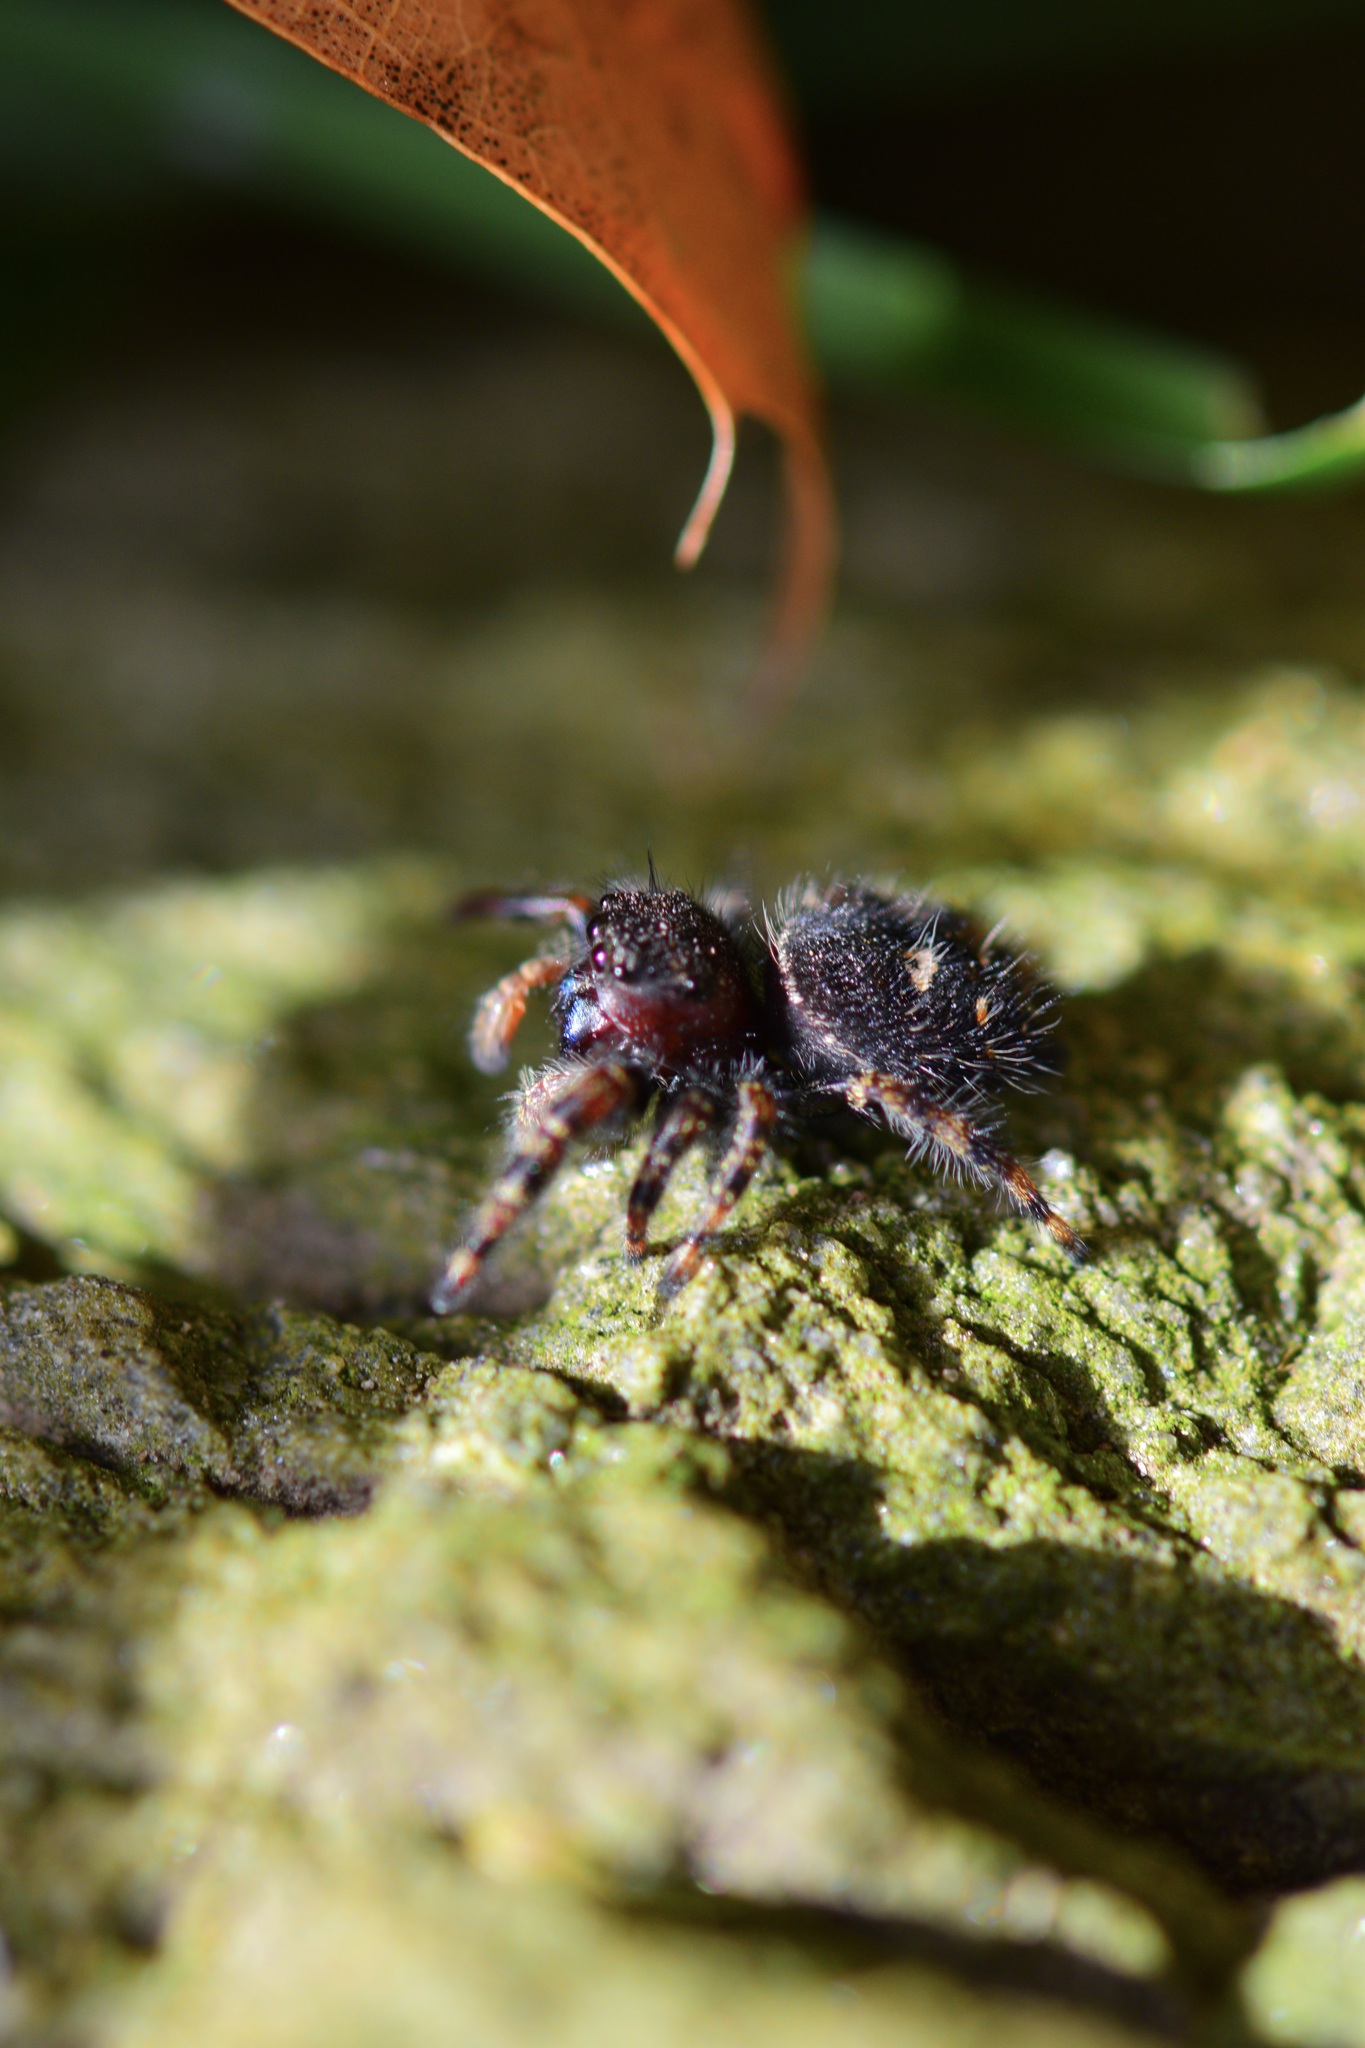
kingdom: Animalia
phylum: Arthropoda
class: Arachnida
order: Araneae
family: Salticidae
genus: Phidippus
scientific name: Phidippus audax
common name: Bold jumper
